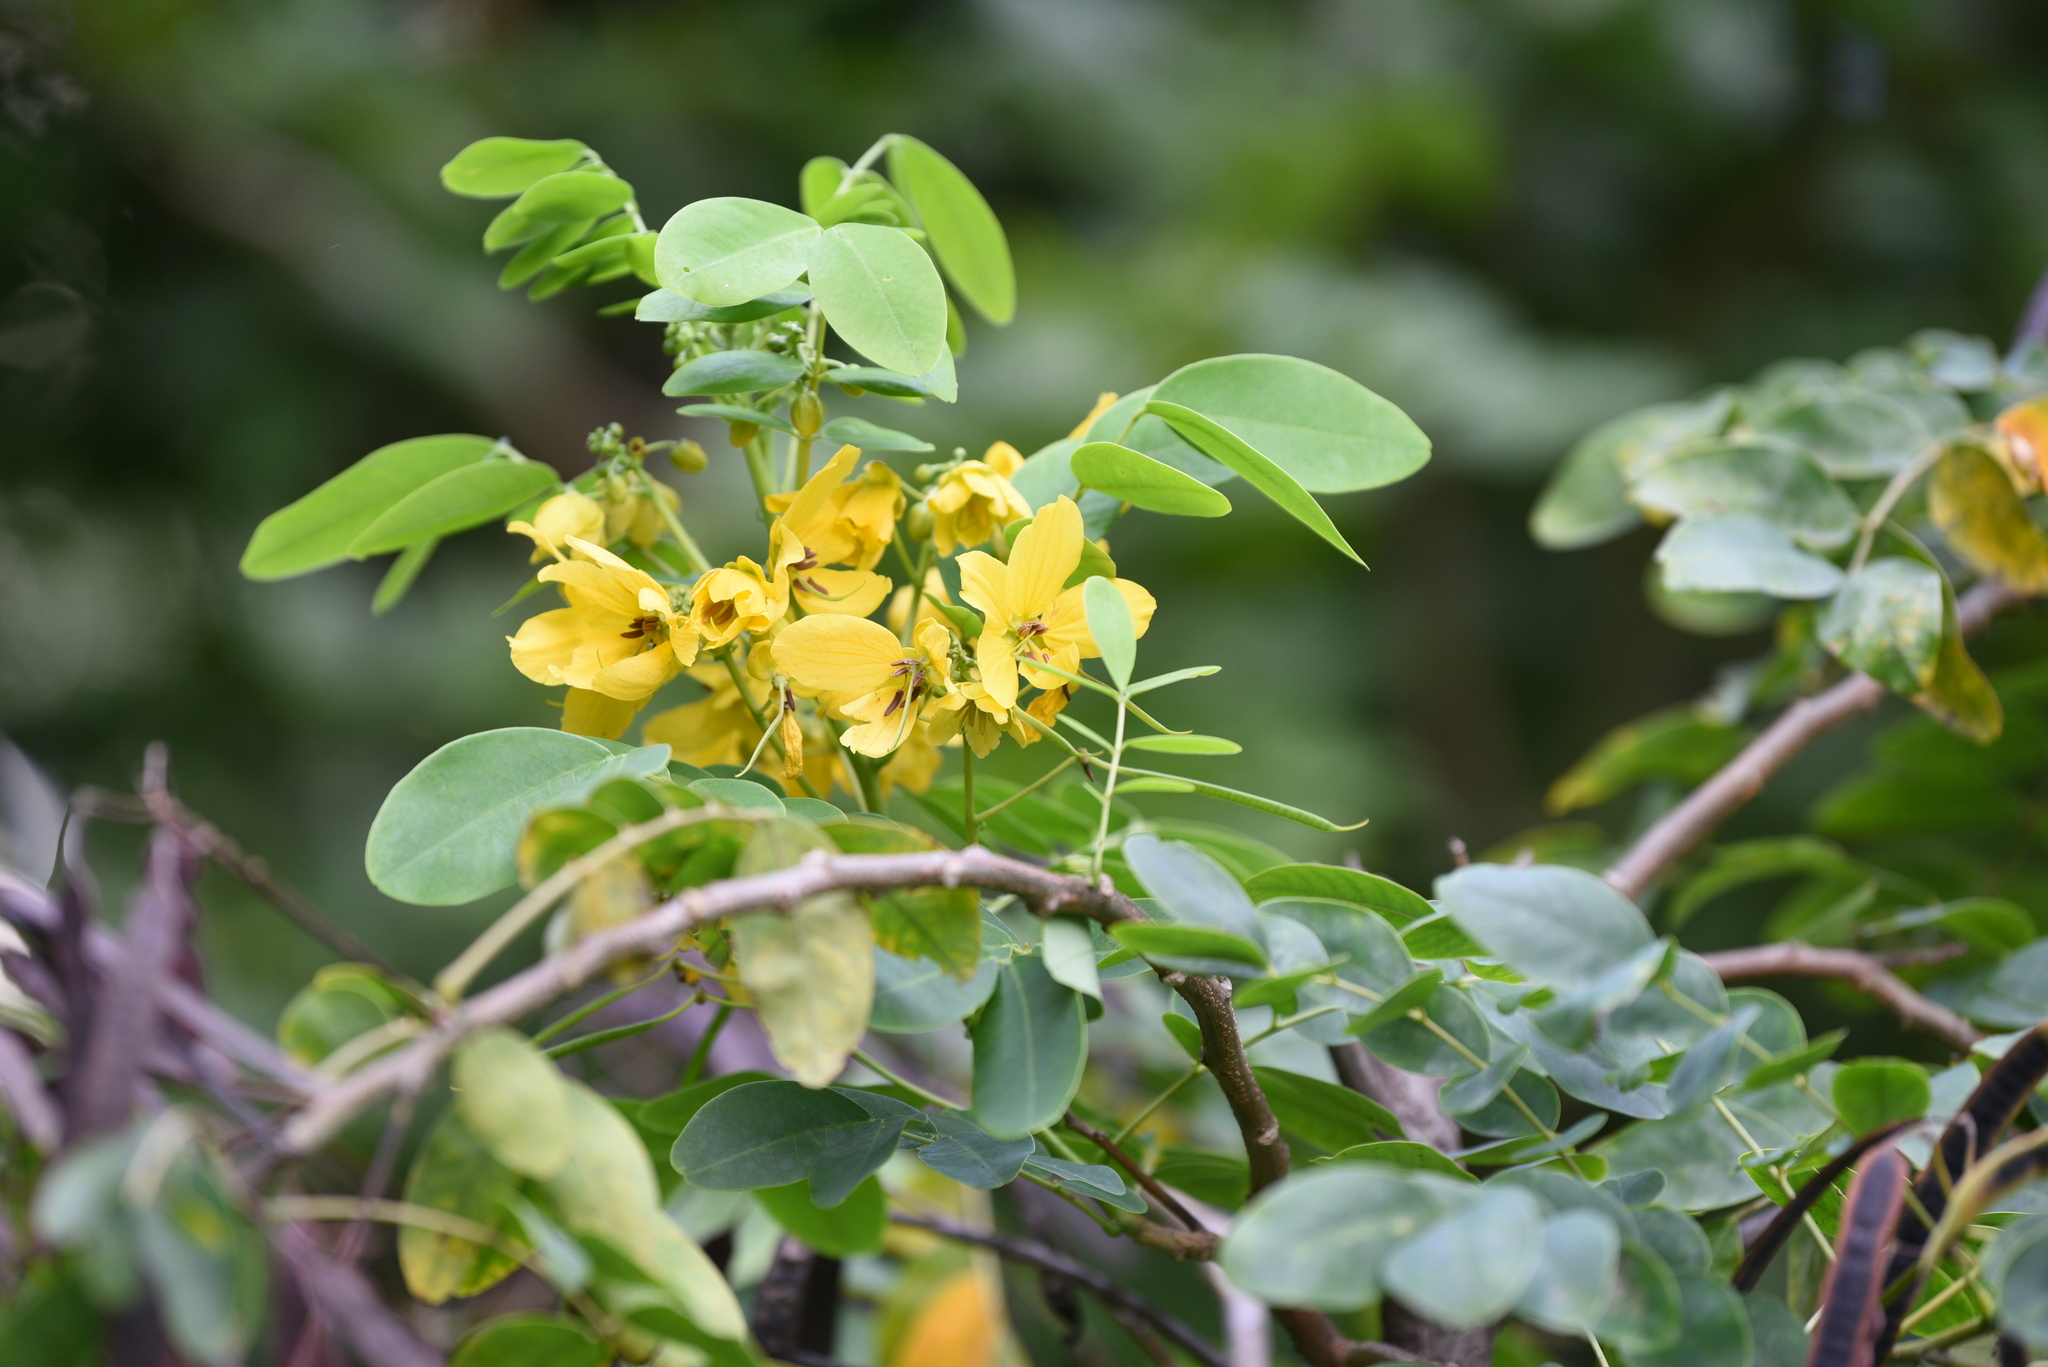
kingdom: Plantae
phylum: Tracheophyta
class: Magnoliopsida
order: Fabales
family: Fabaceae
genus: Senna
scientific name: Senna sulfurea
